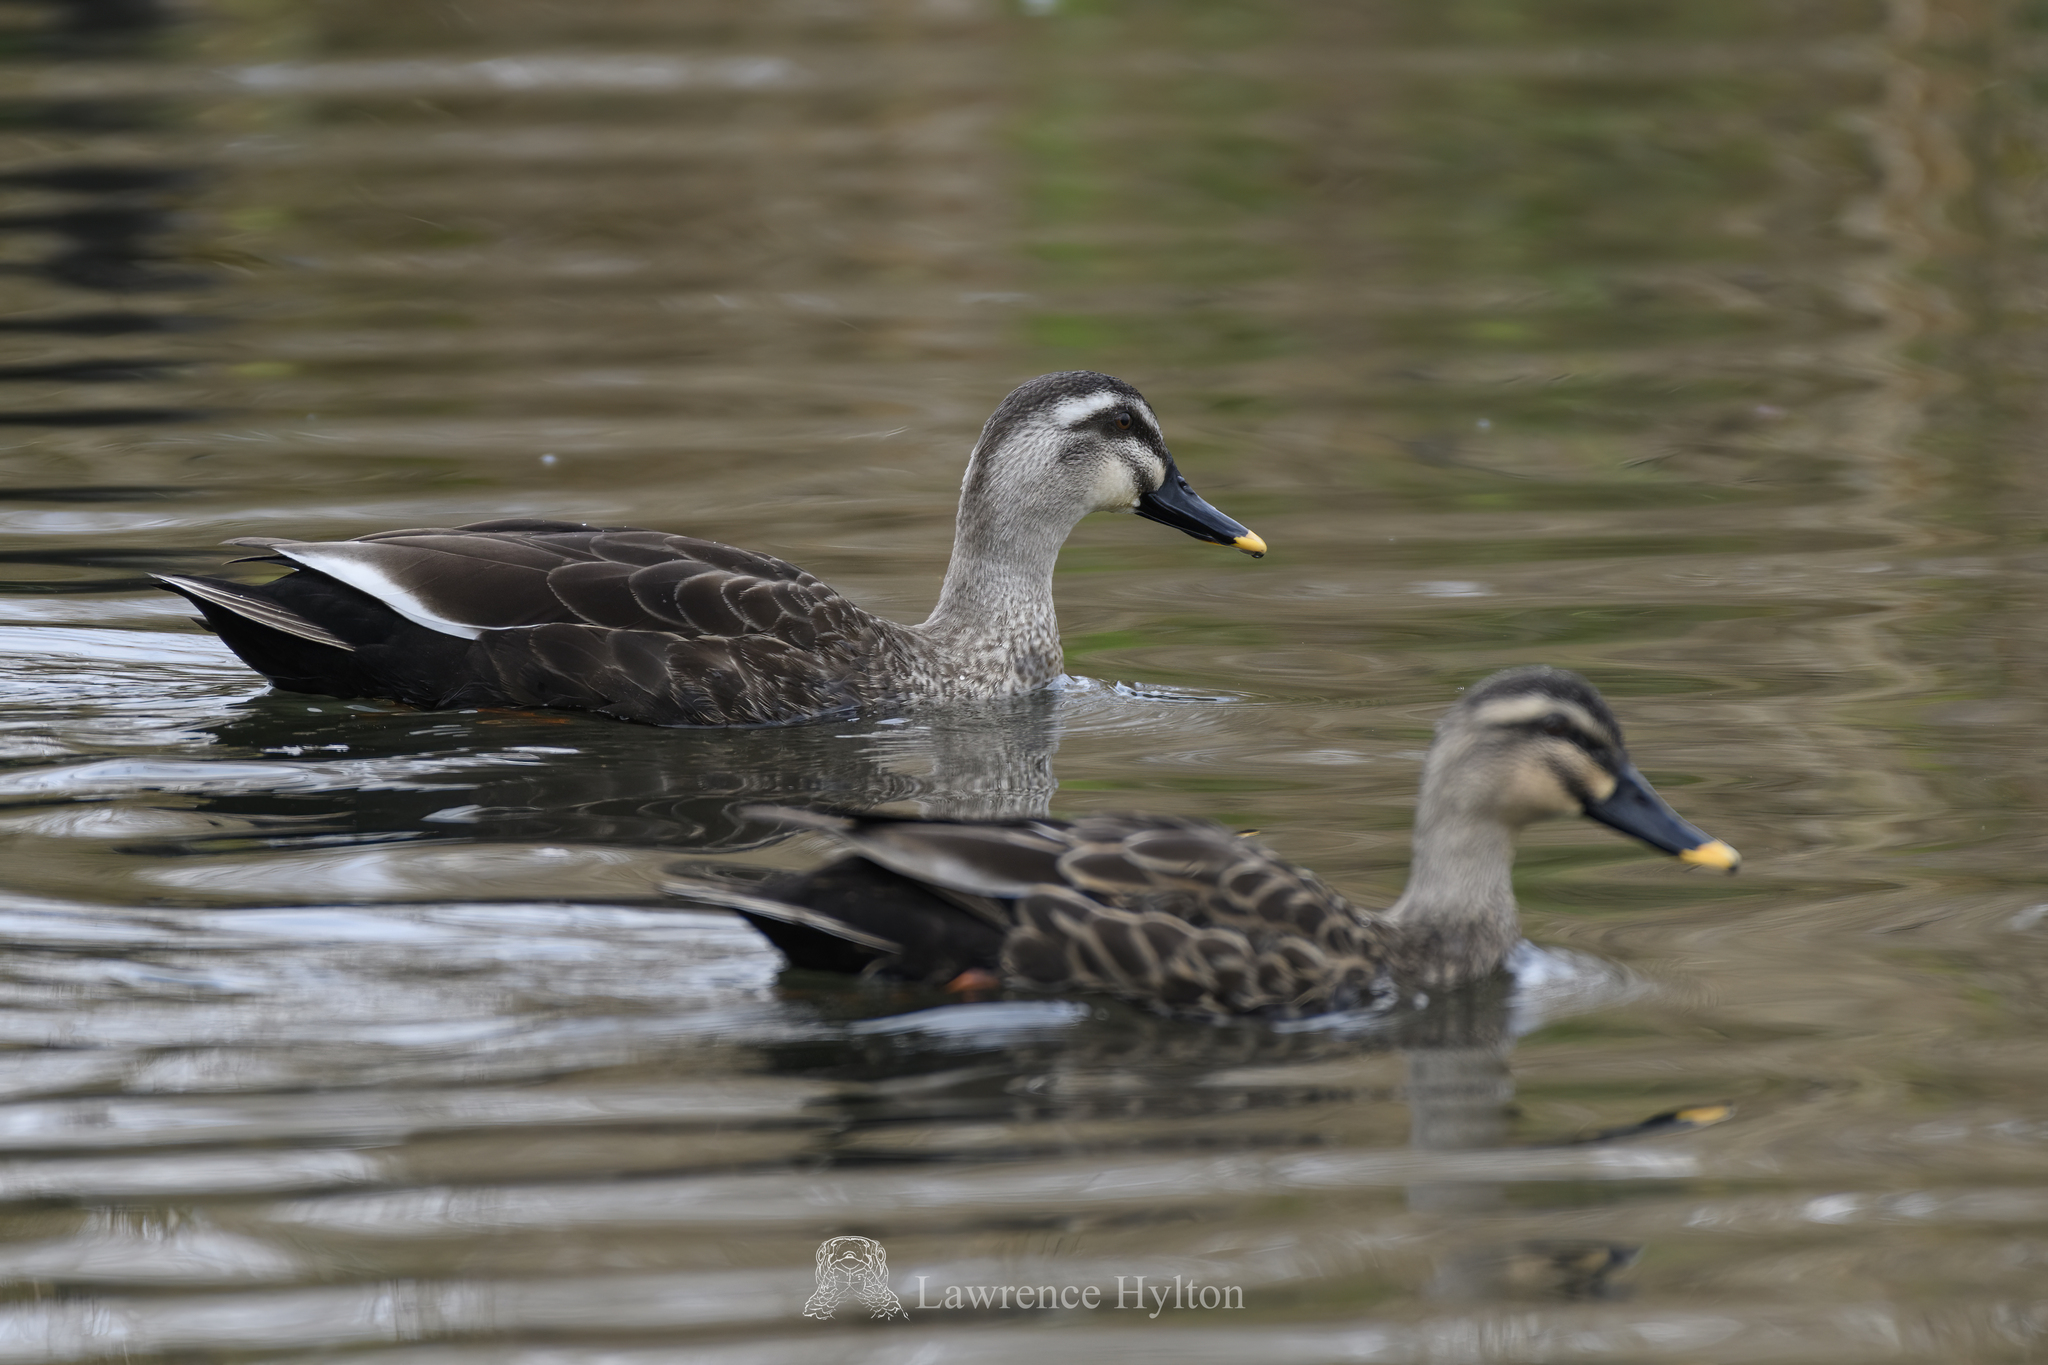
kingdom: Animalia
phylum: Chordata
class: Aves
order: Anseriformes
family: Anatidae
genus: Anas
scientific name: Anas zonorhyncha
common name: Eastern spot-billed duck
